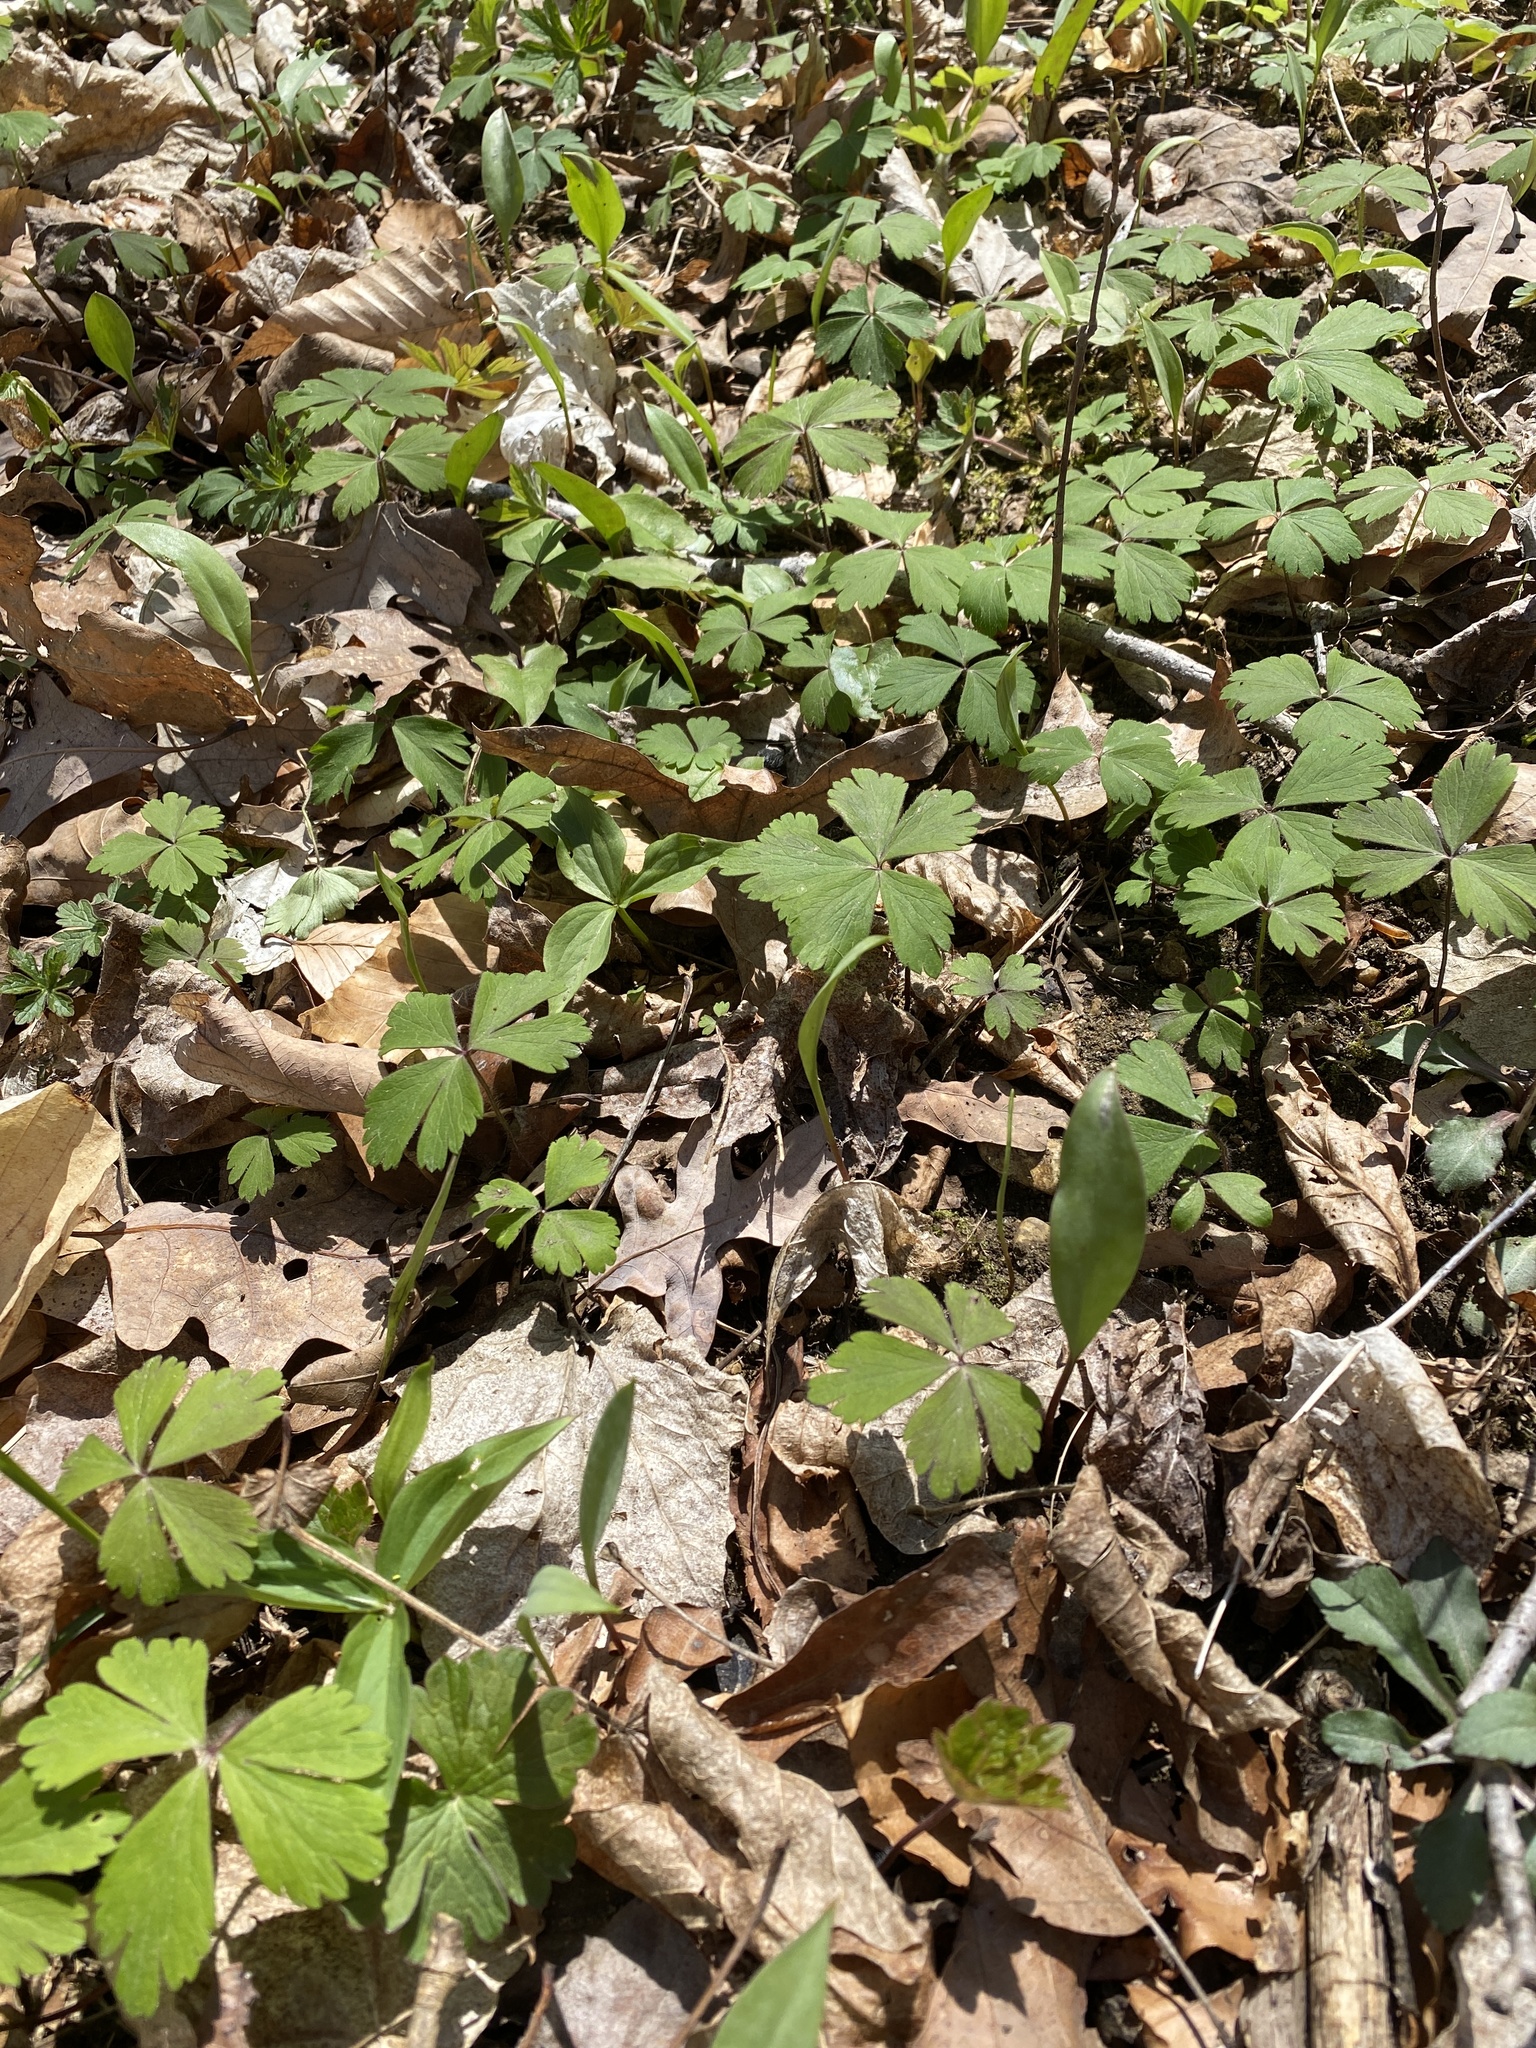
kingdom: Plantae
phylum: Tracheophyta
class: Magnoliopsida
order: Ranunculales
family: Ranunculaceae
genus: Anemone
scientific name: Anemone quinquefolia
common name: Wood anemone
